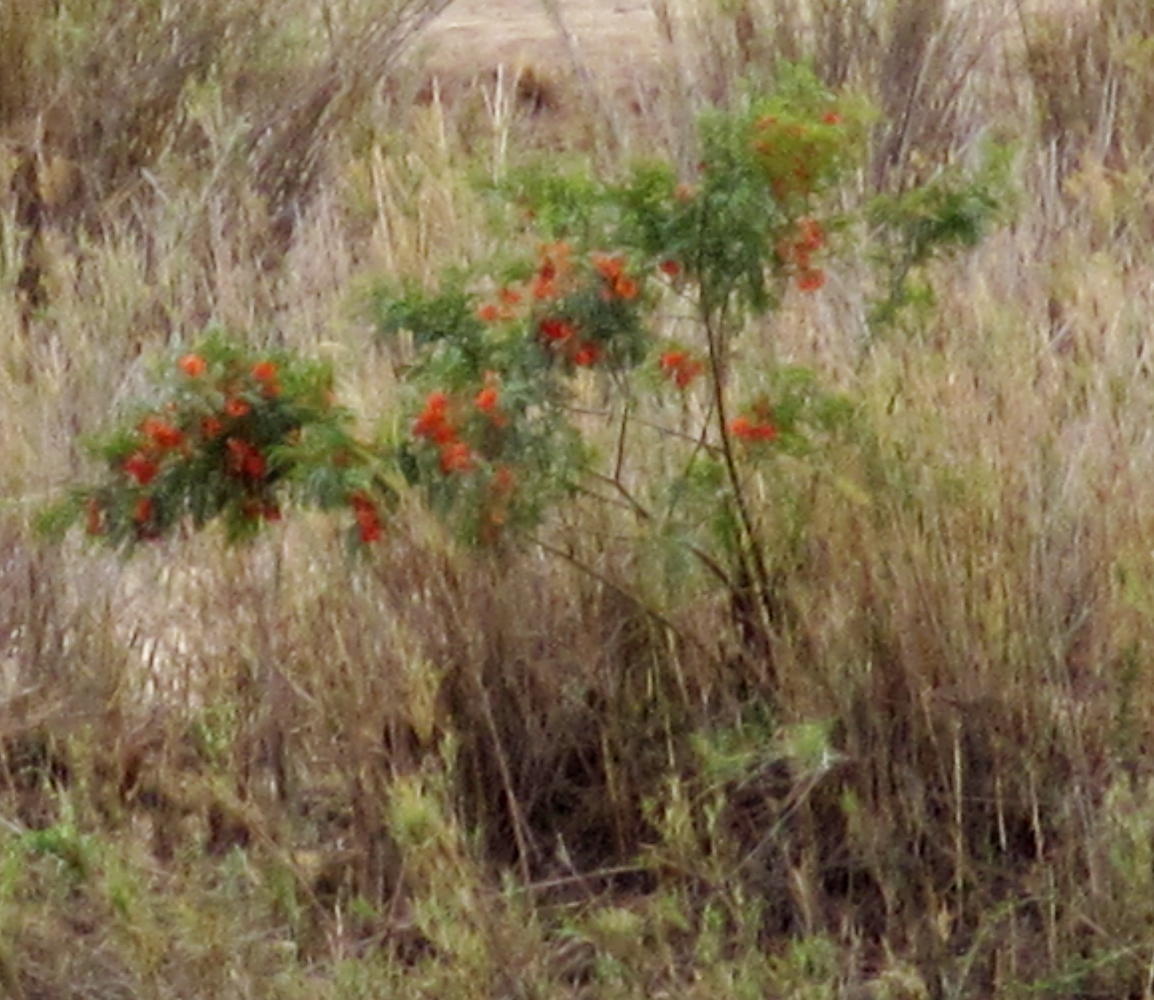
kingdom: Plantae
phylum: Tracheophyta
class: Magnoliopsida
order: Fabales
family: Fabaceae
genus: Sesbania
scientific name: Sesbania punicea
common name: Rattlebox
